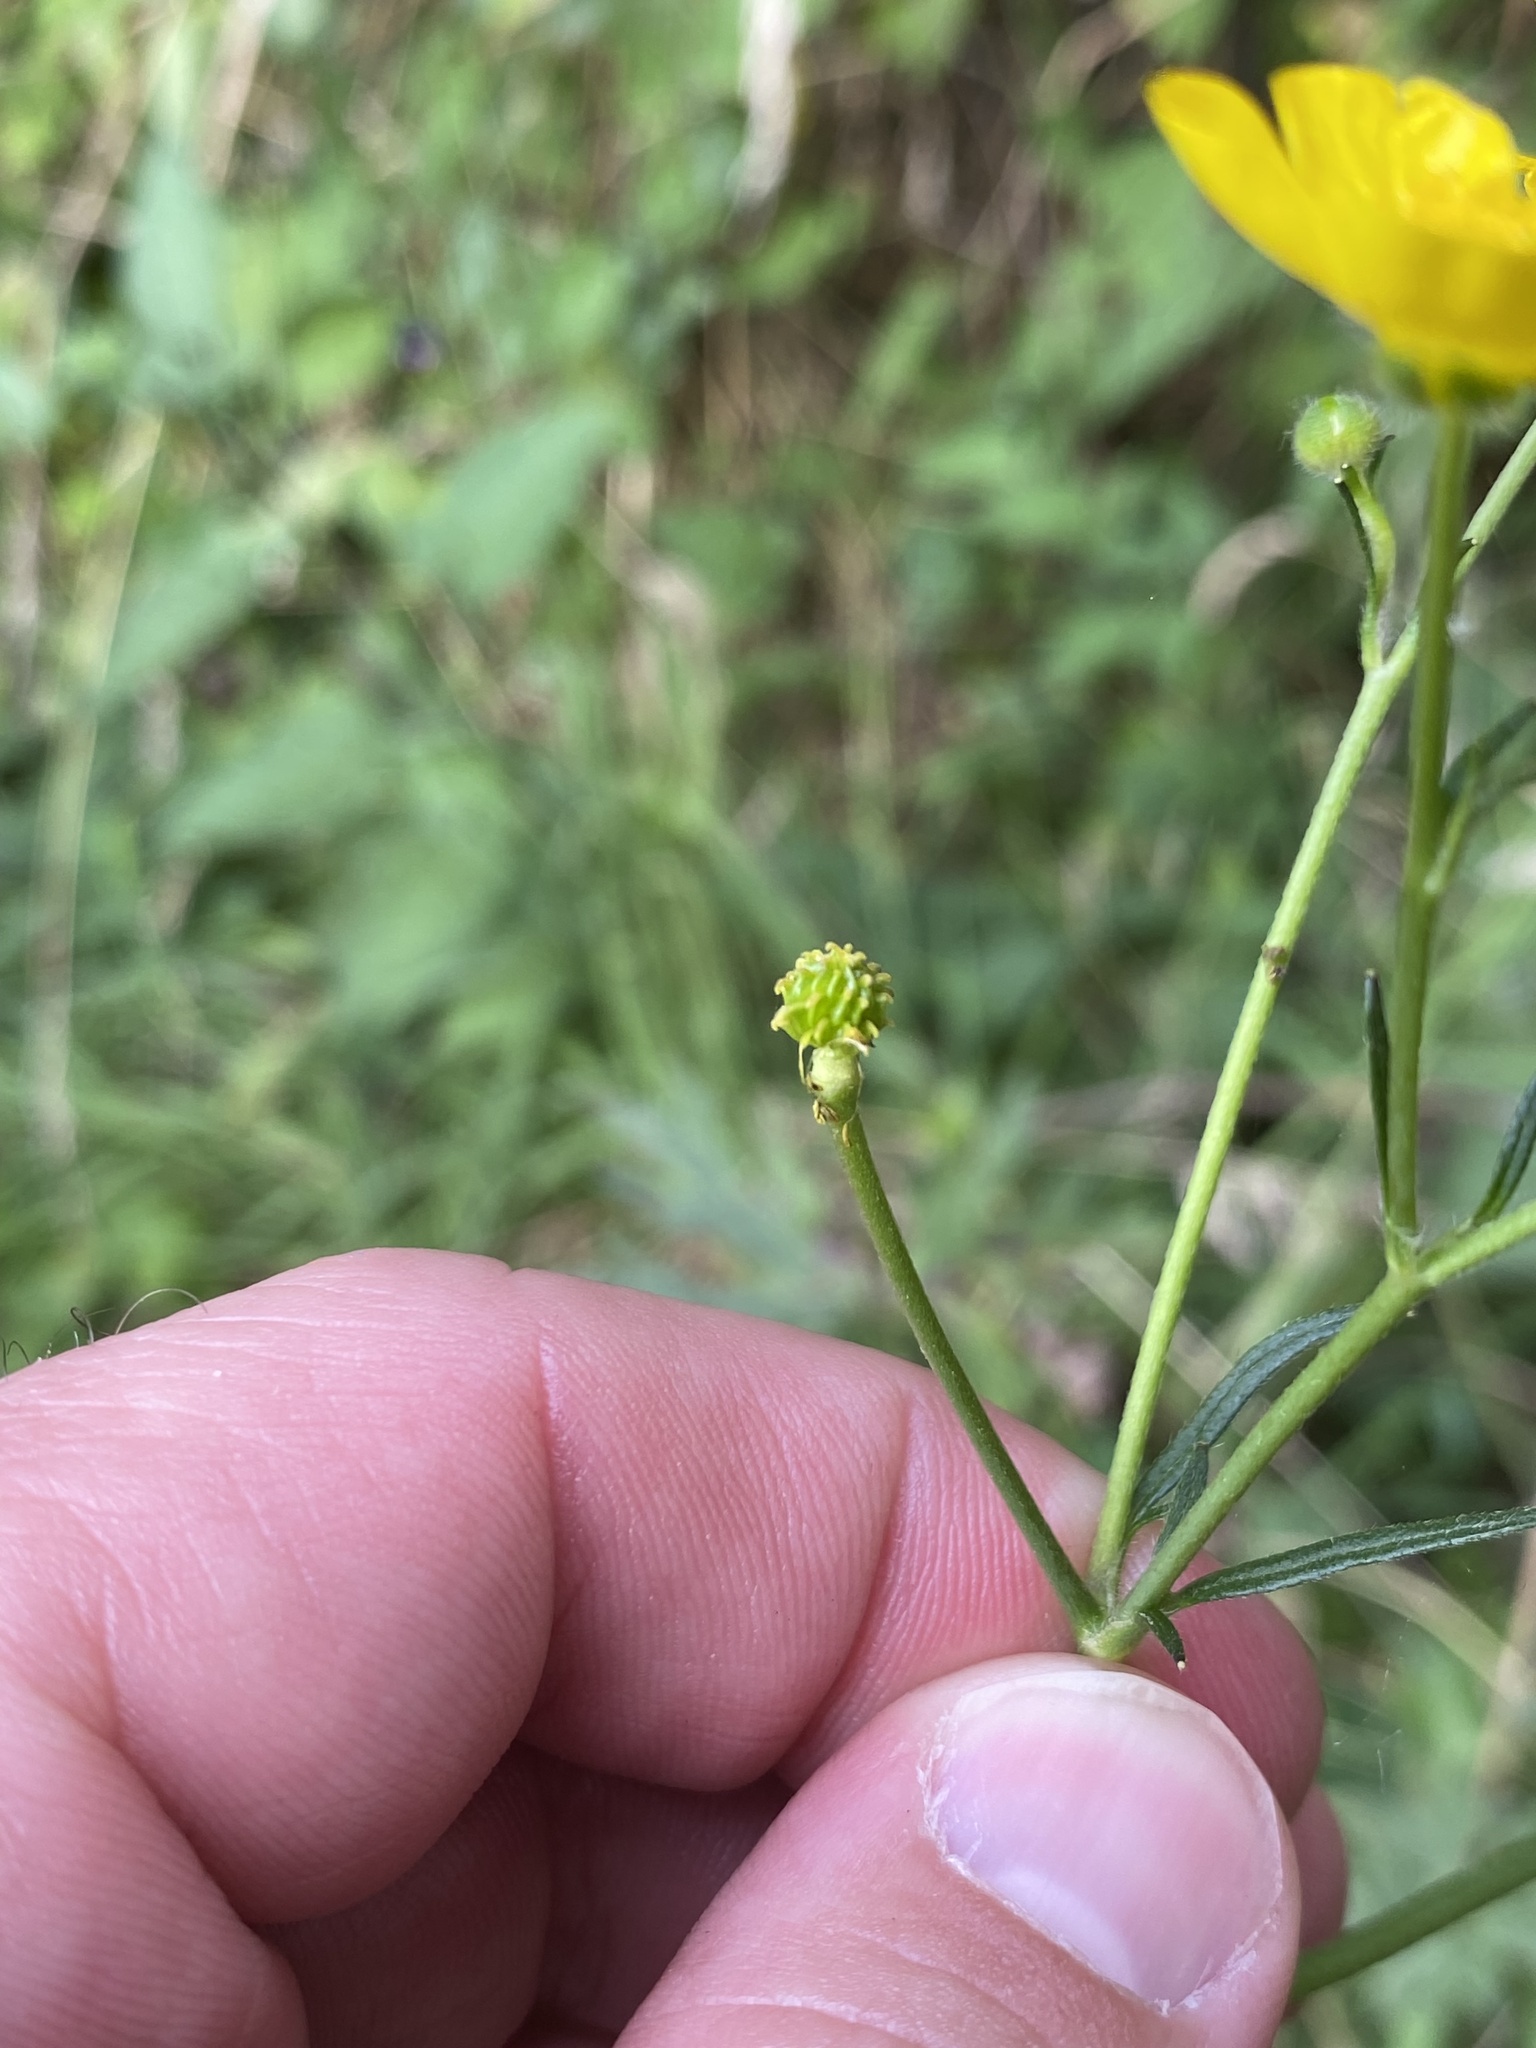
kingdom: Plantae
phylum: Tracheophyta
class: Magnoliopsida
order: Ranunculales
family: Ranunculaceae
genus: Ranunculus
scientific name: Ranunculus acris
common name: Meadow buttercup
